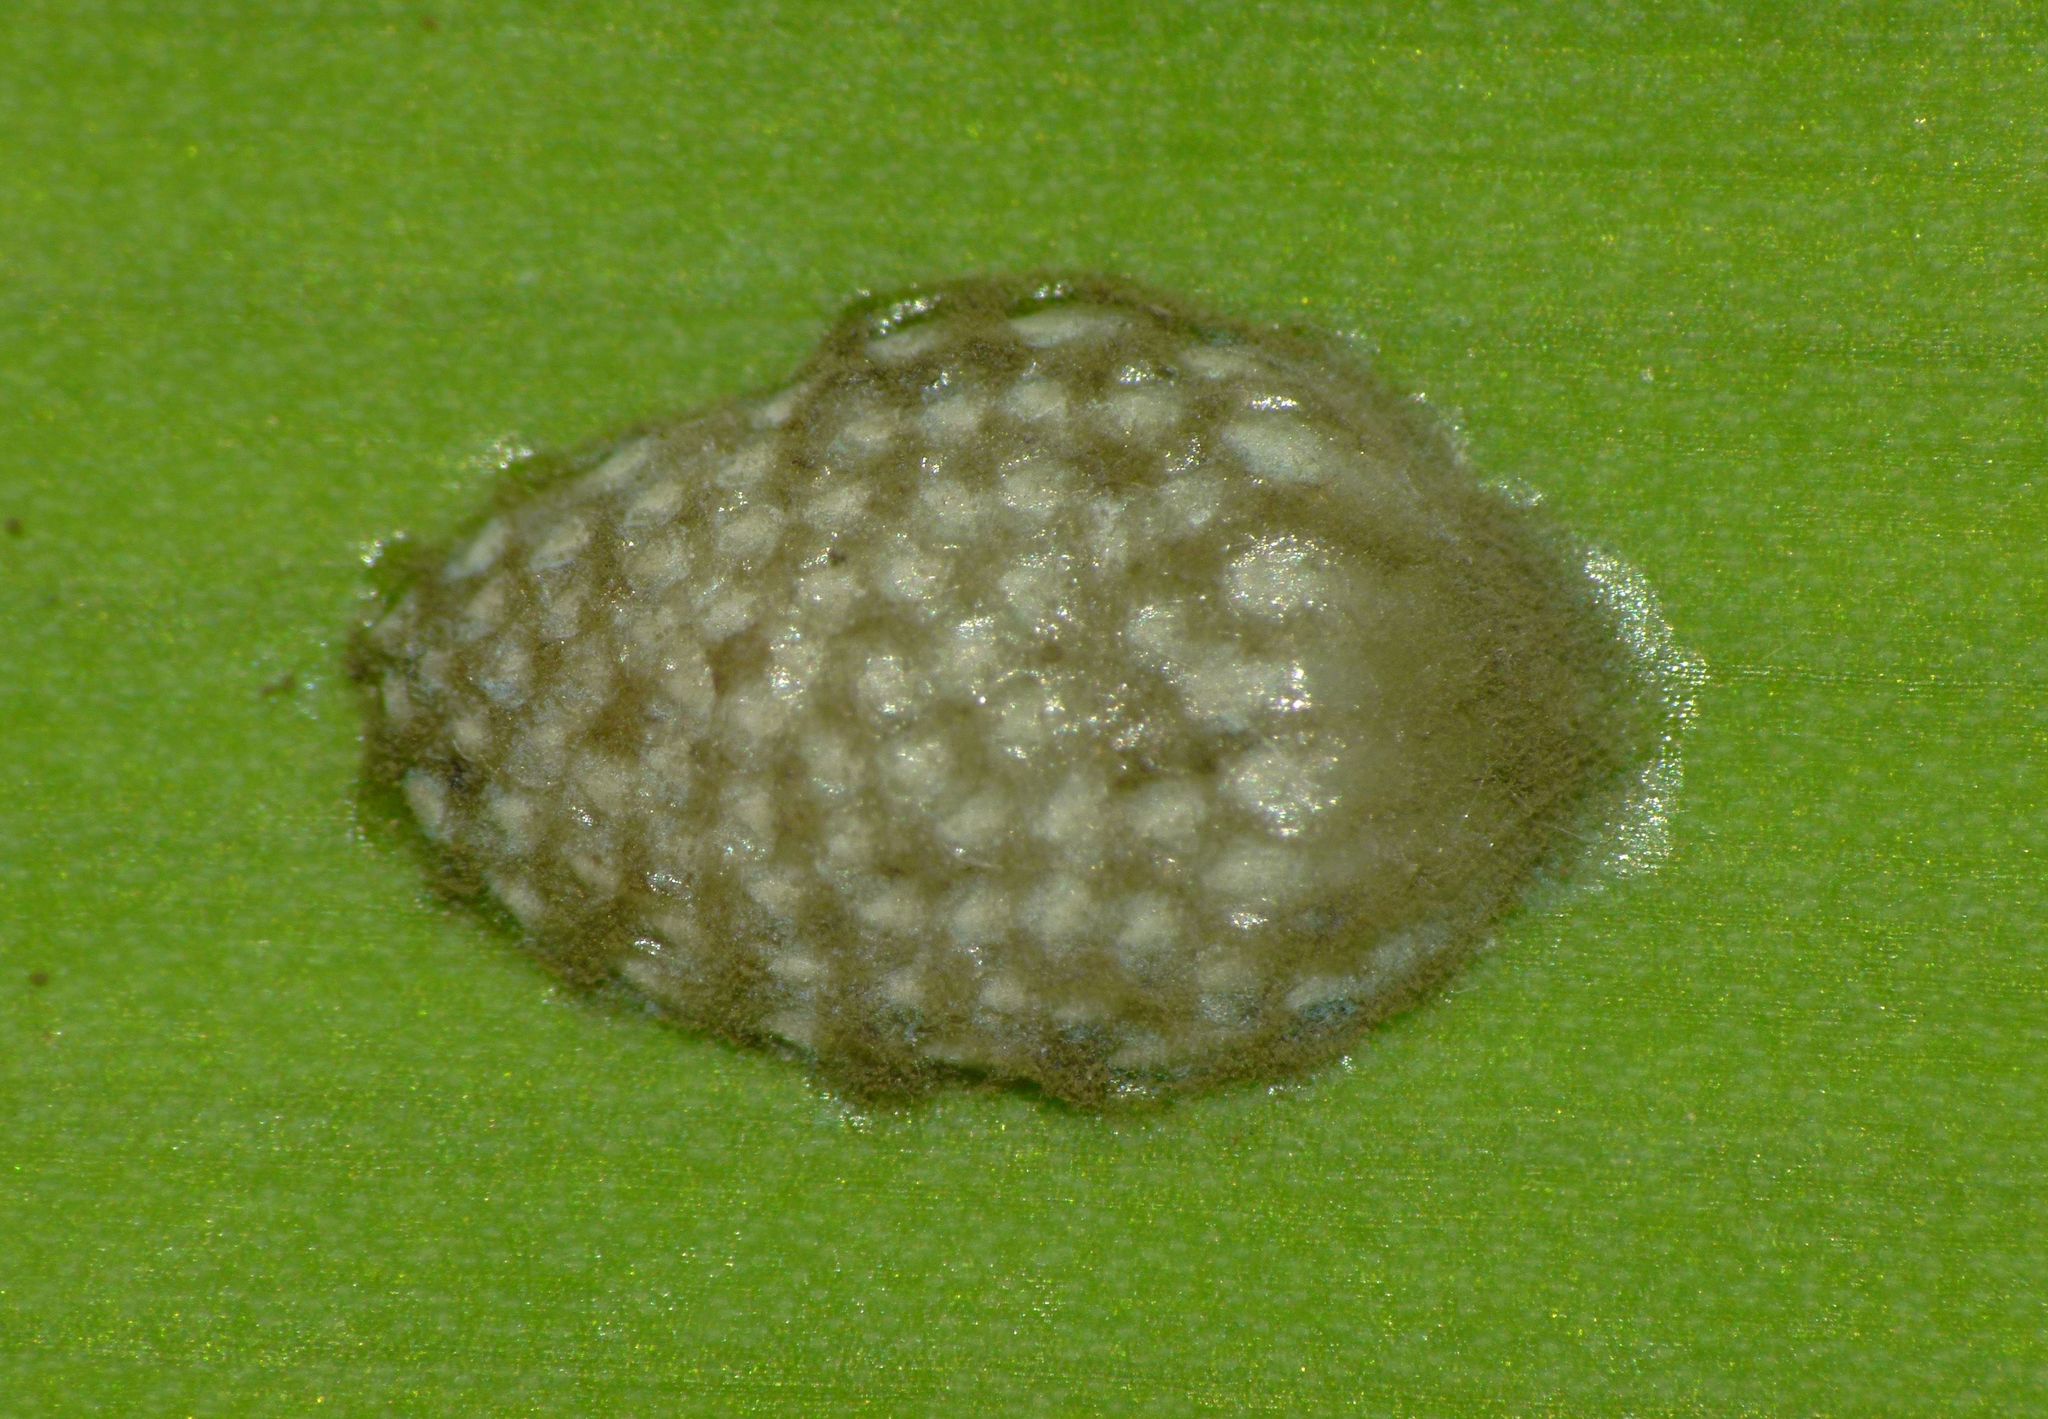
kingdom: Animalia
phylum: Arthropoda
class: Insecta
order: Hemiptera
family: Flatidae
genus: Siphanta
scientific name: Siphanta acuta
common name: Torpedo bug
